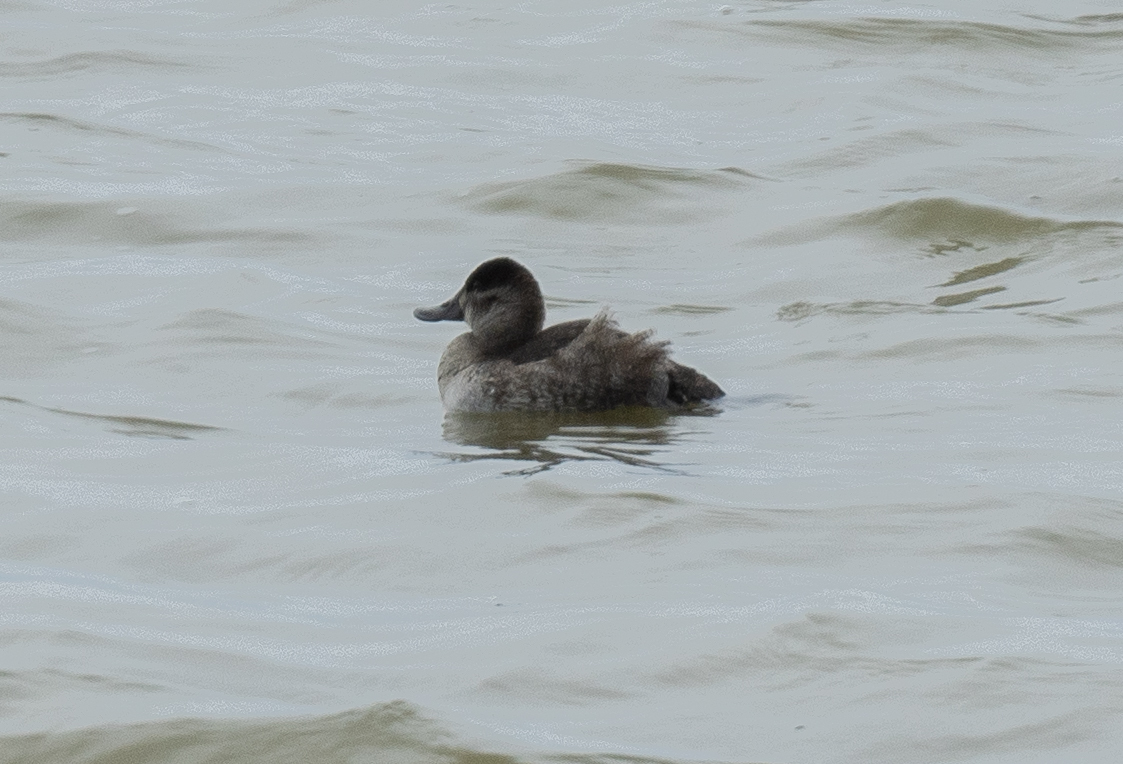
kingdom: Animalia
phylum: Chordata
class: Aves
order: Anseriformes
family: Anatidae
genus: Oxyura
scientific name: Oxyura jamaicensis
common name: Ruddy duck
